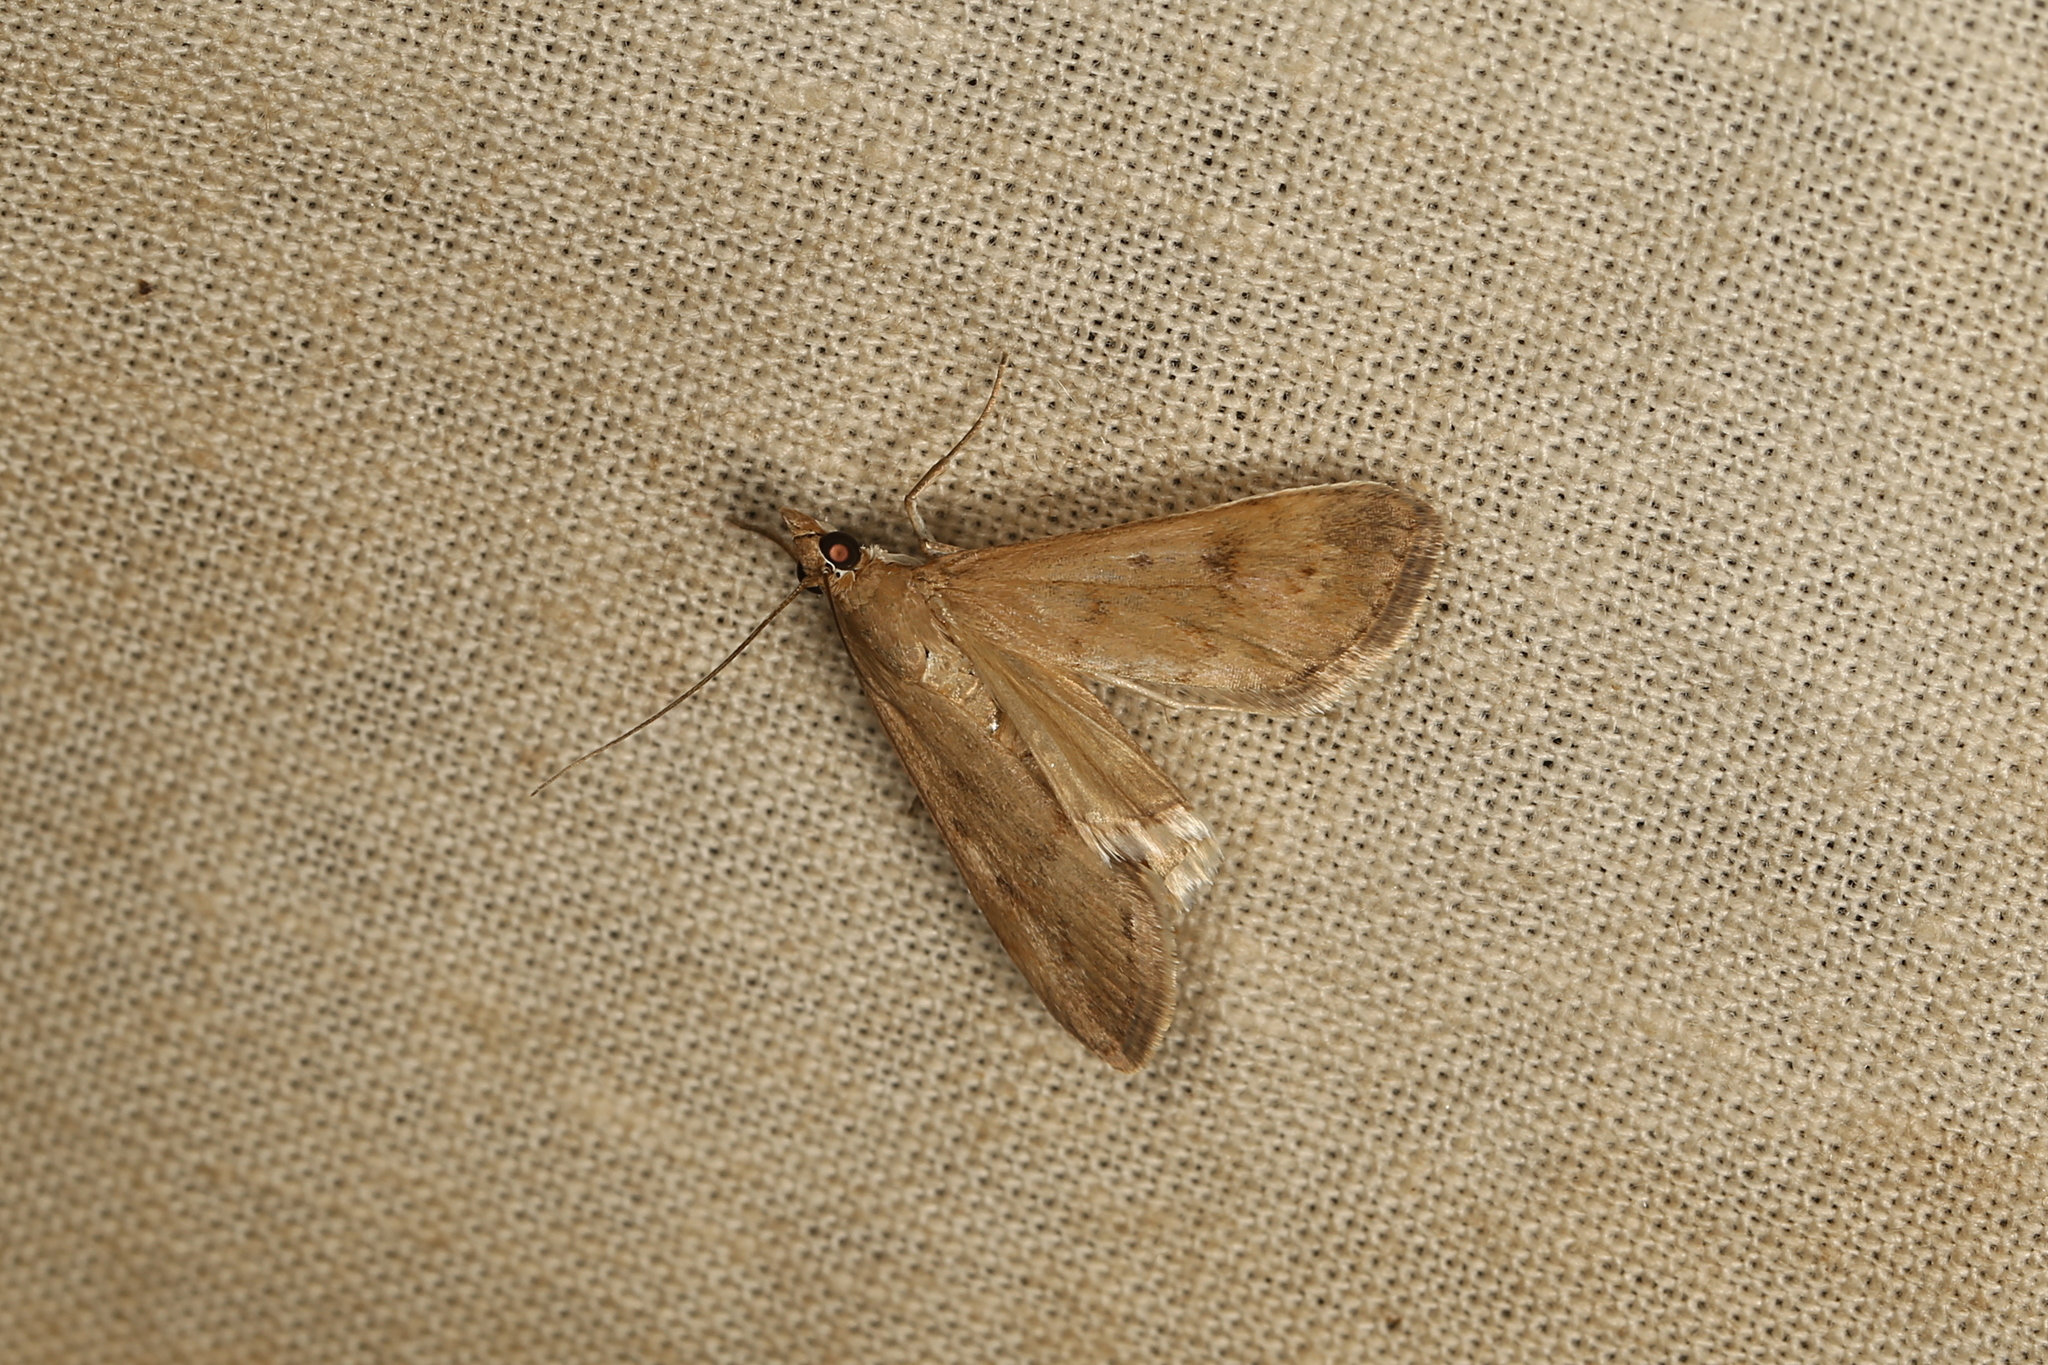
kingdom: Animalia
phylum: Arthropoda
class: Insecta
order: Lepidoptera
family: Crambidae
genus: Achyra
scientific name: Achyra affinitalis
